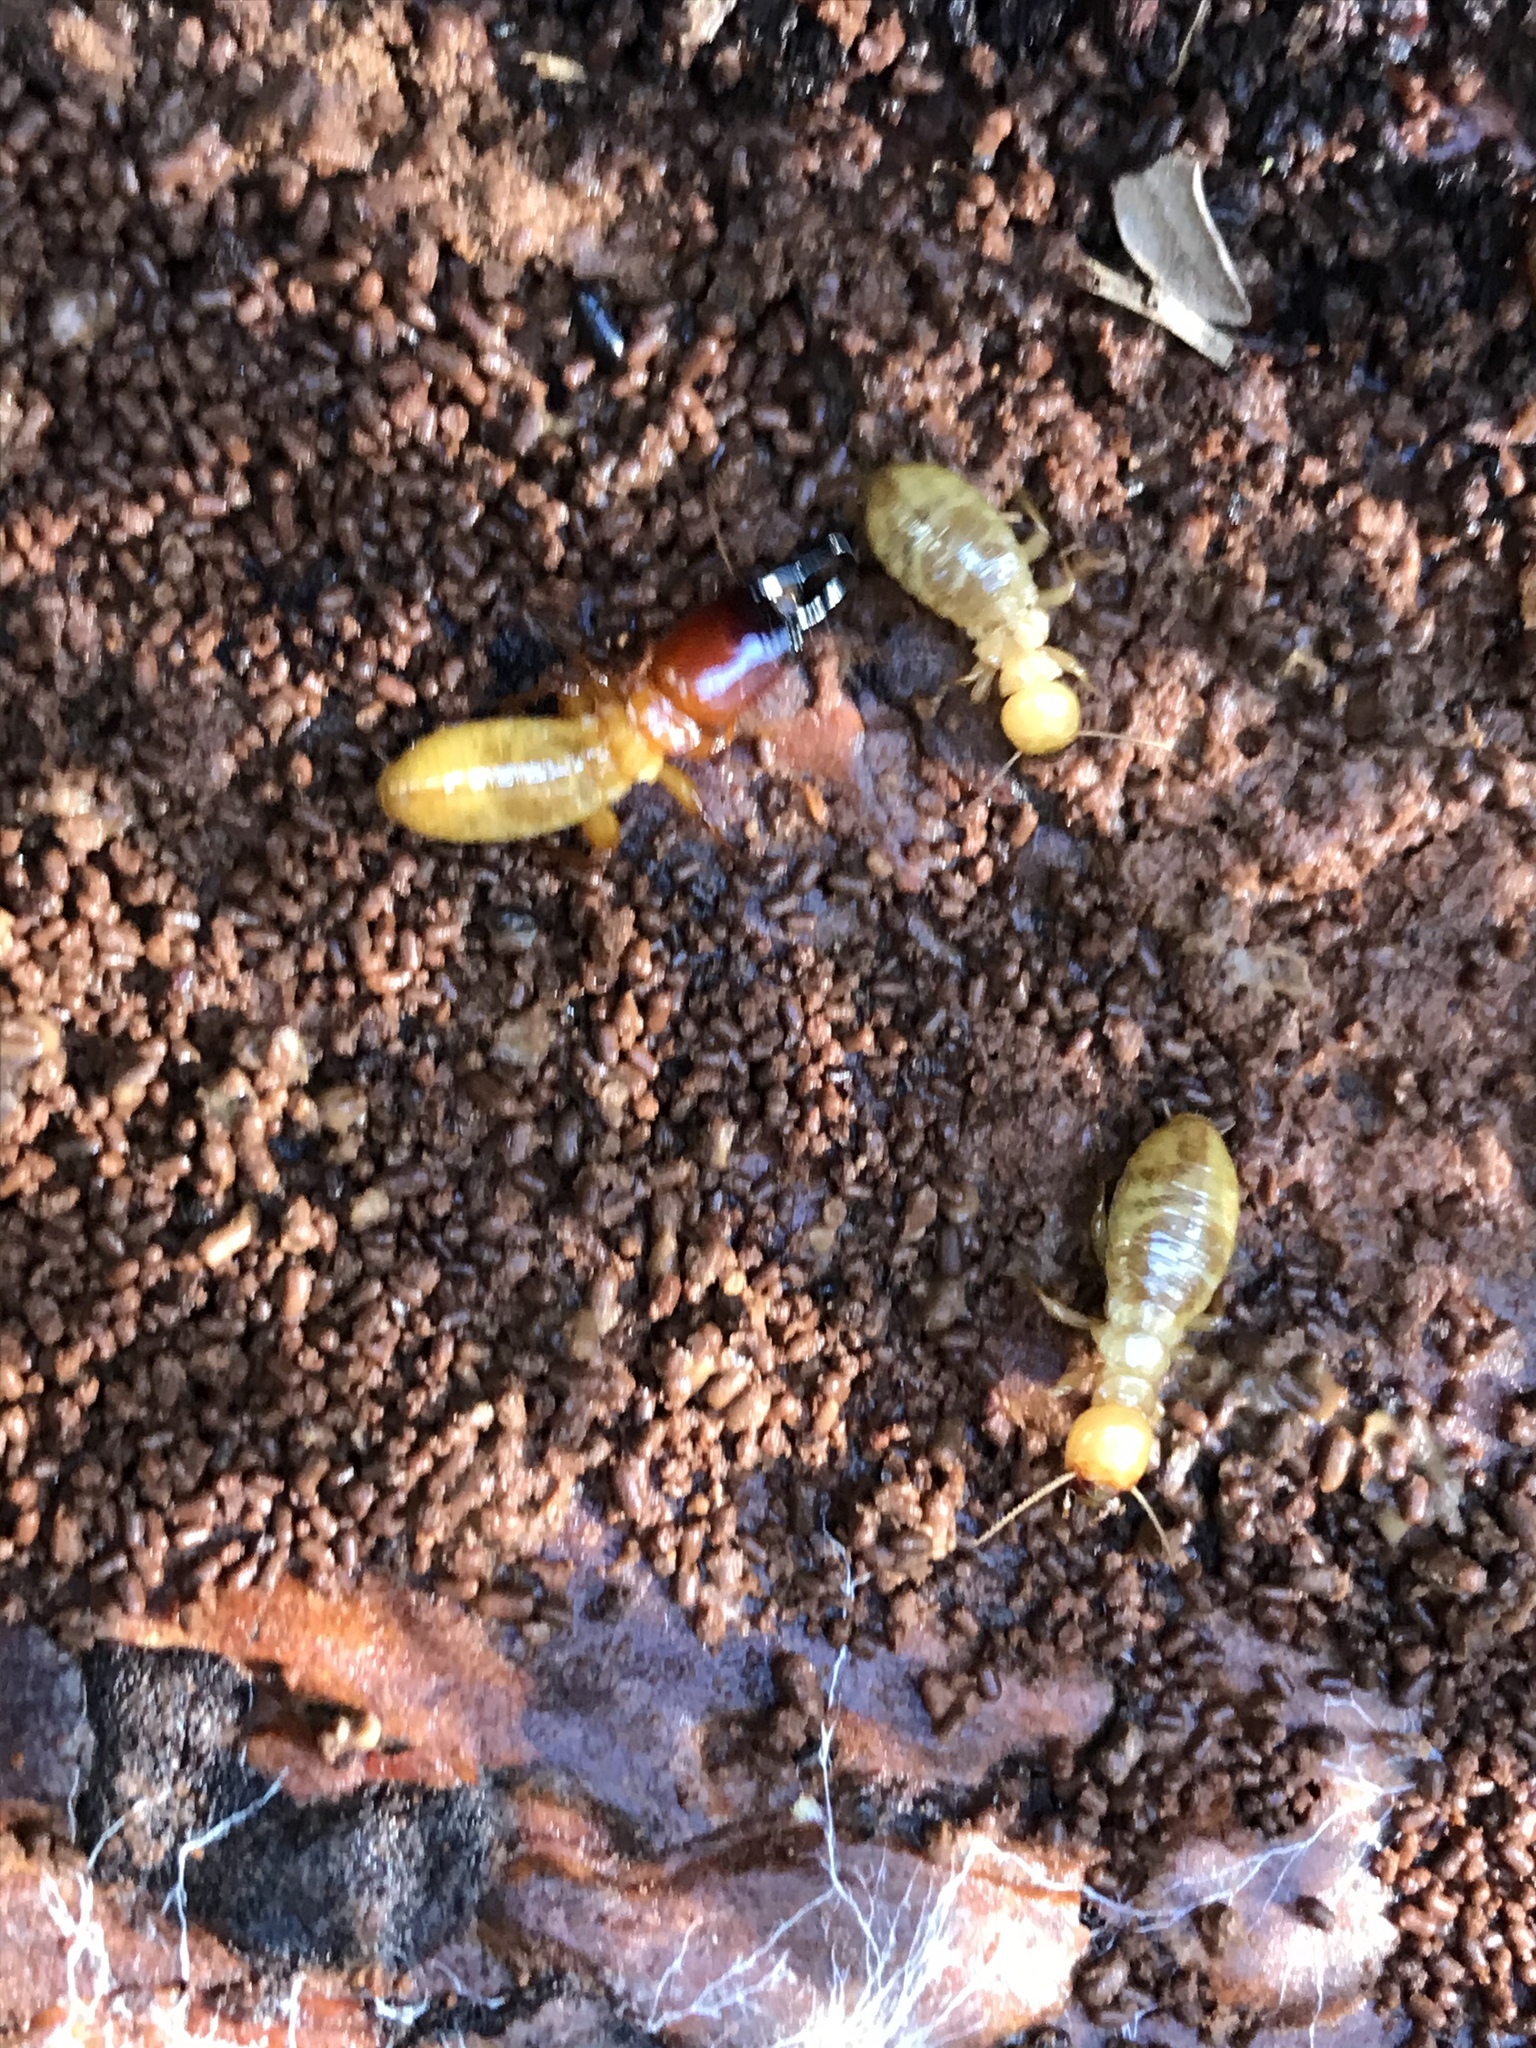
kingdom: Animalia
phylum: Arthropoda
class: Insecta
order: Blattodea
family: Archotermopsidae
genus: Zootermopsis
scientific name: Zootermopsis nevadensis
